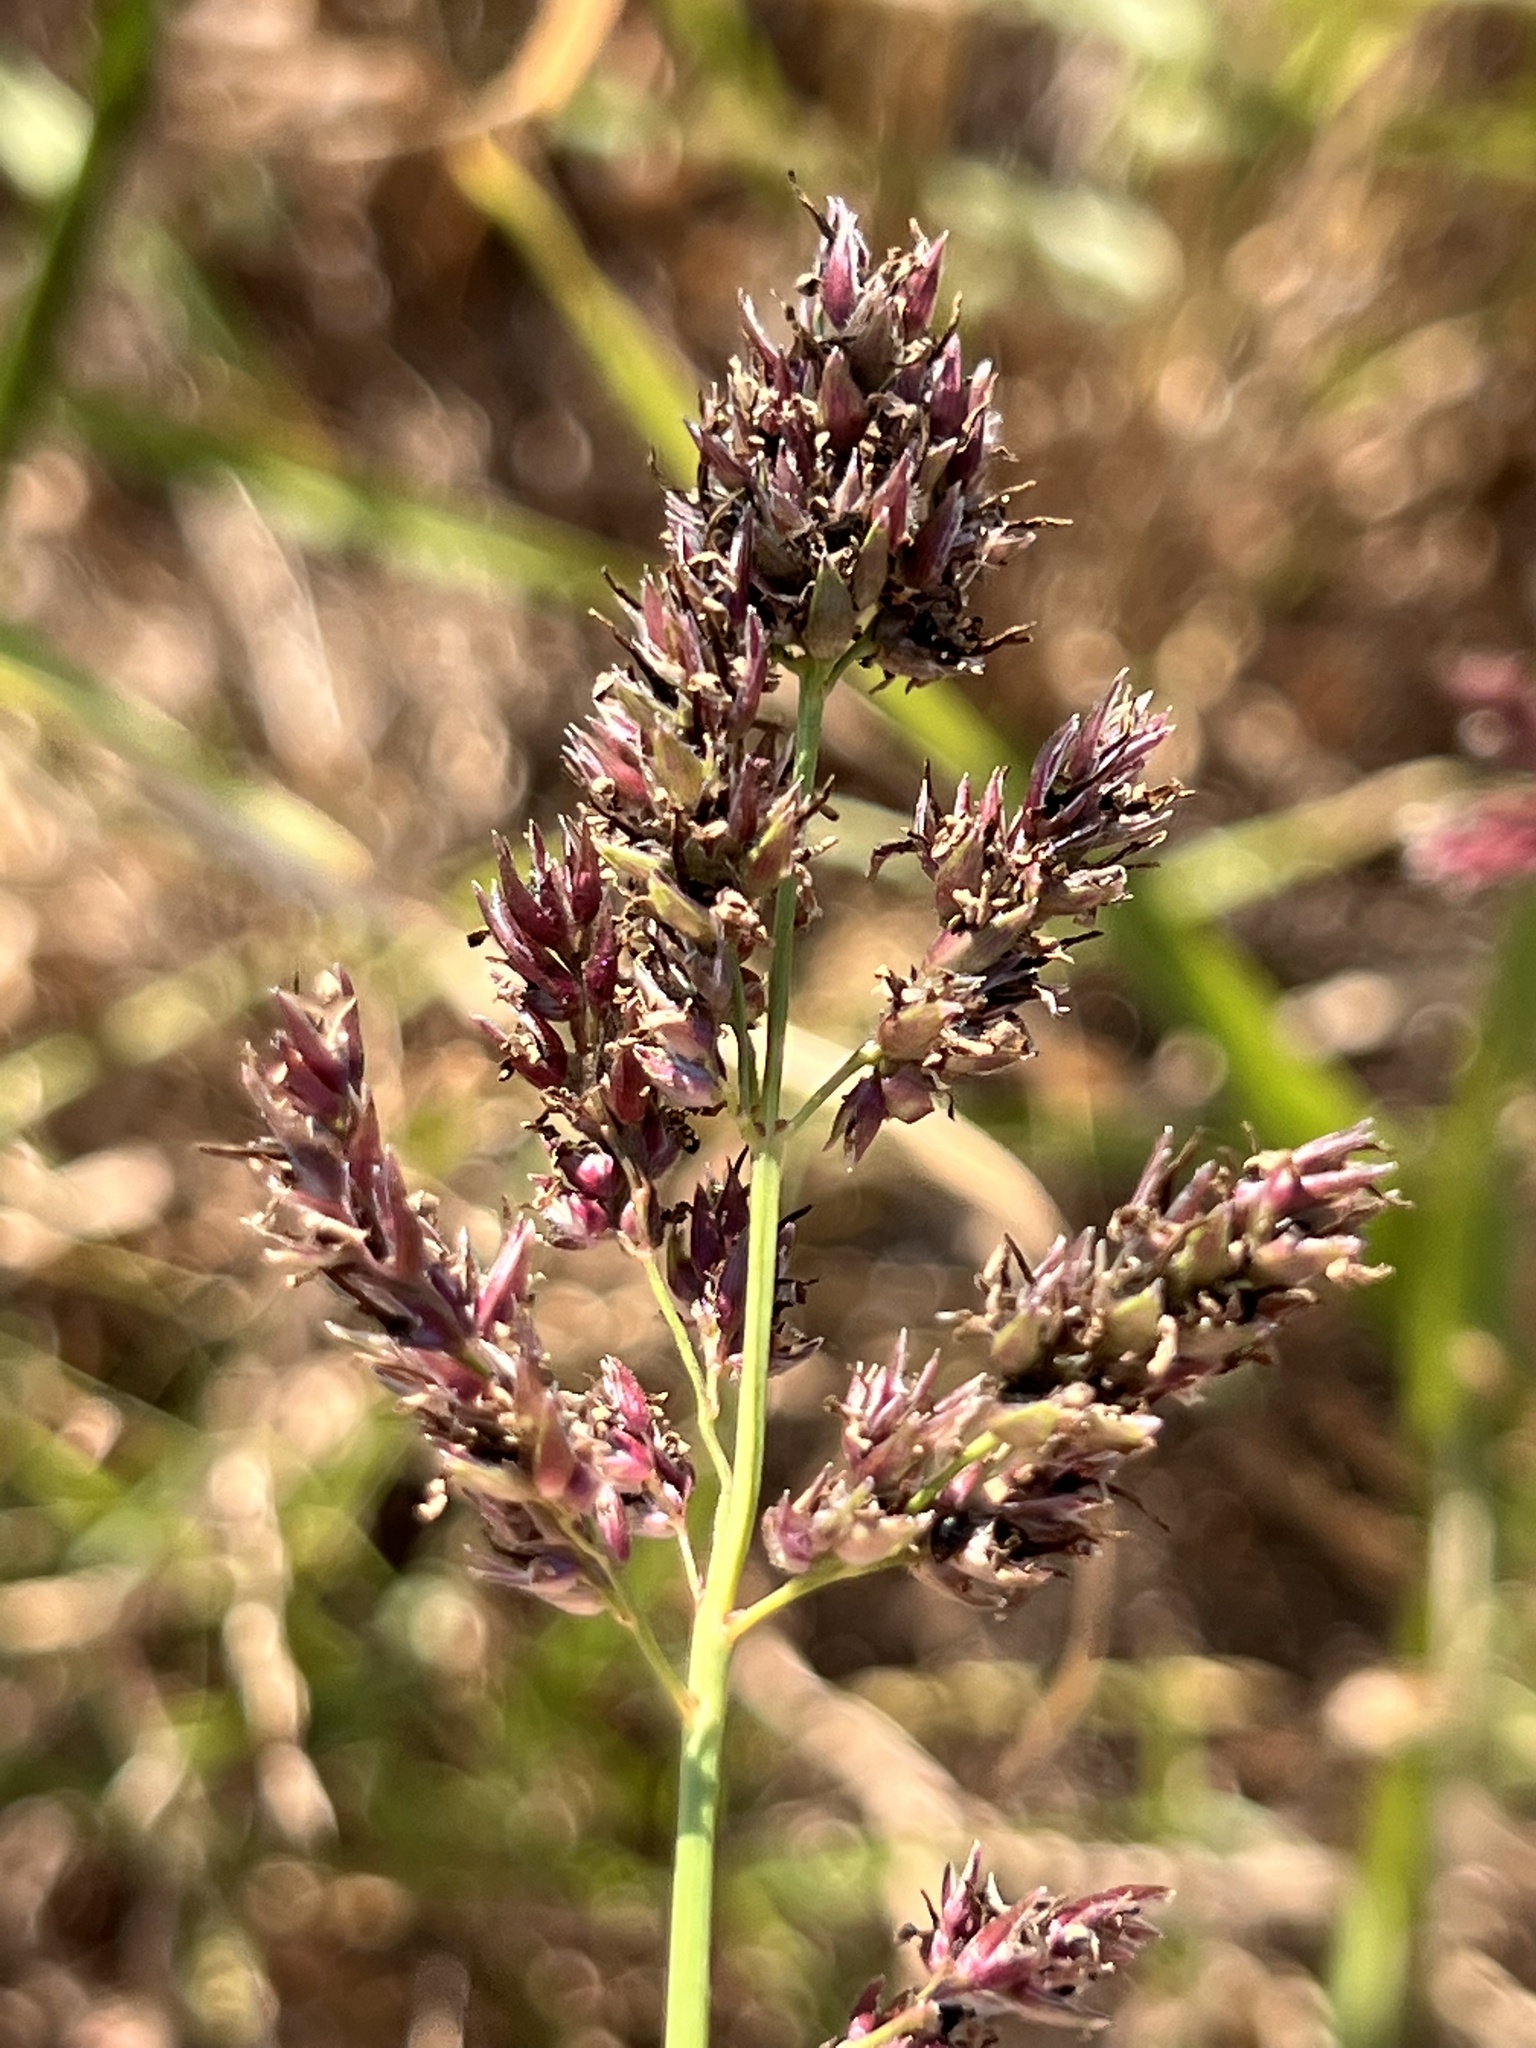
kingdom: Plantae
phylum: Tracheophyta
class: Liliopsida
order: Poales
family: Poaceae
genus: Sorghum
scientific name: Sorghum halepense
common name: Johnson-grass
